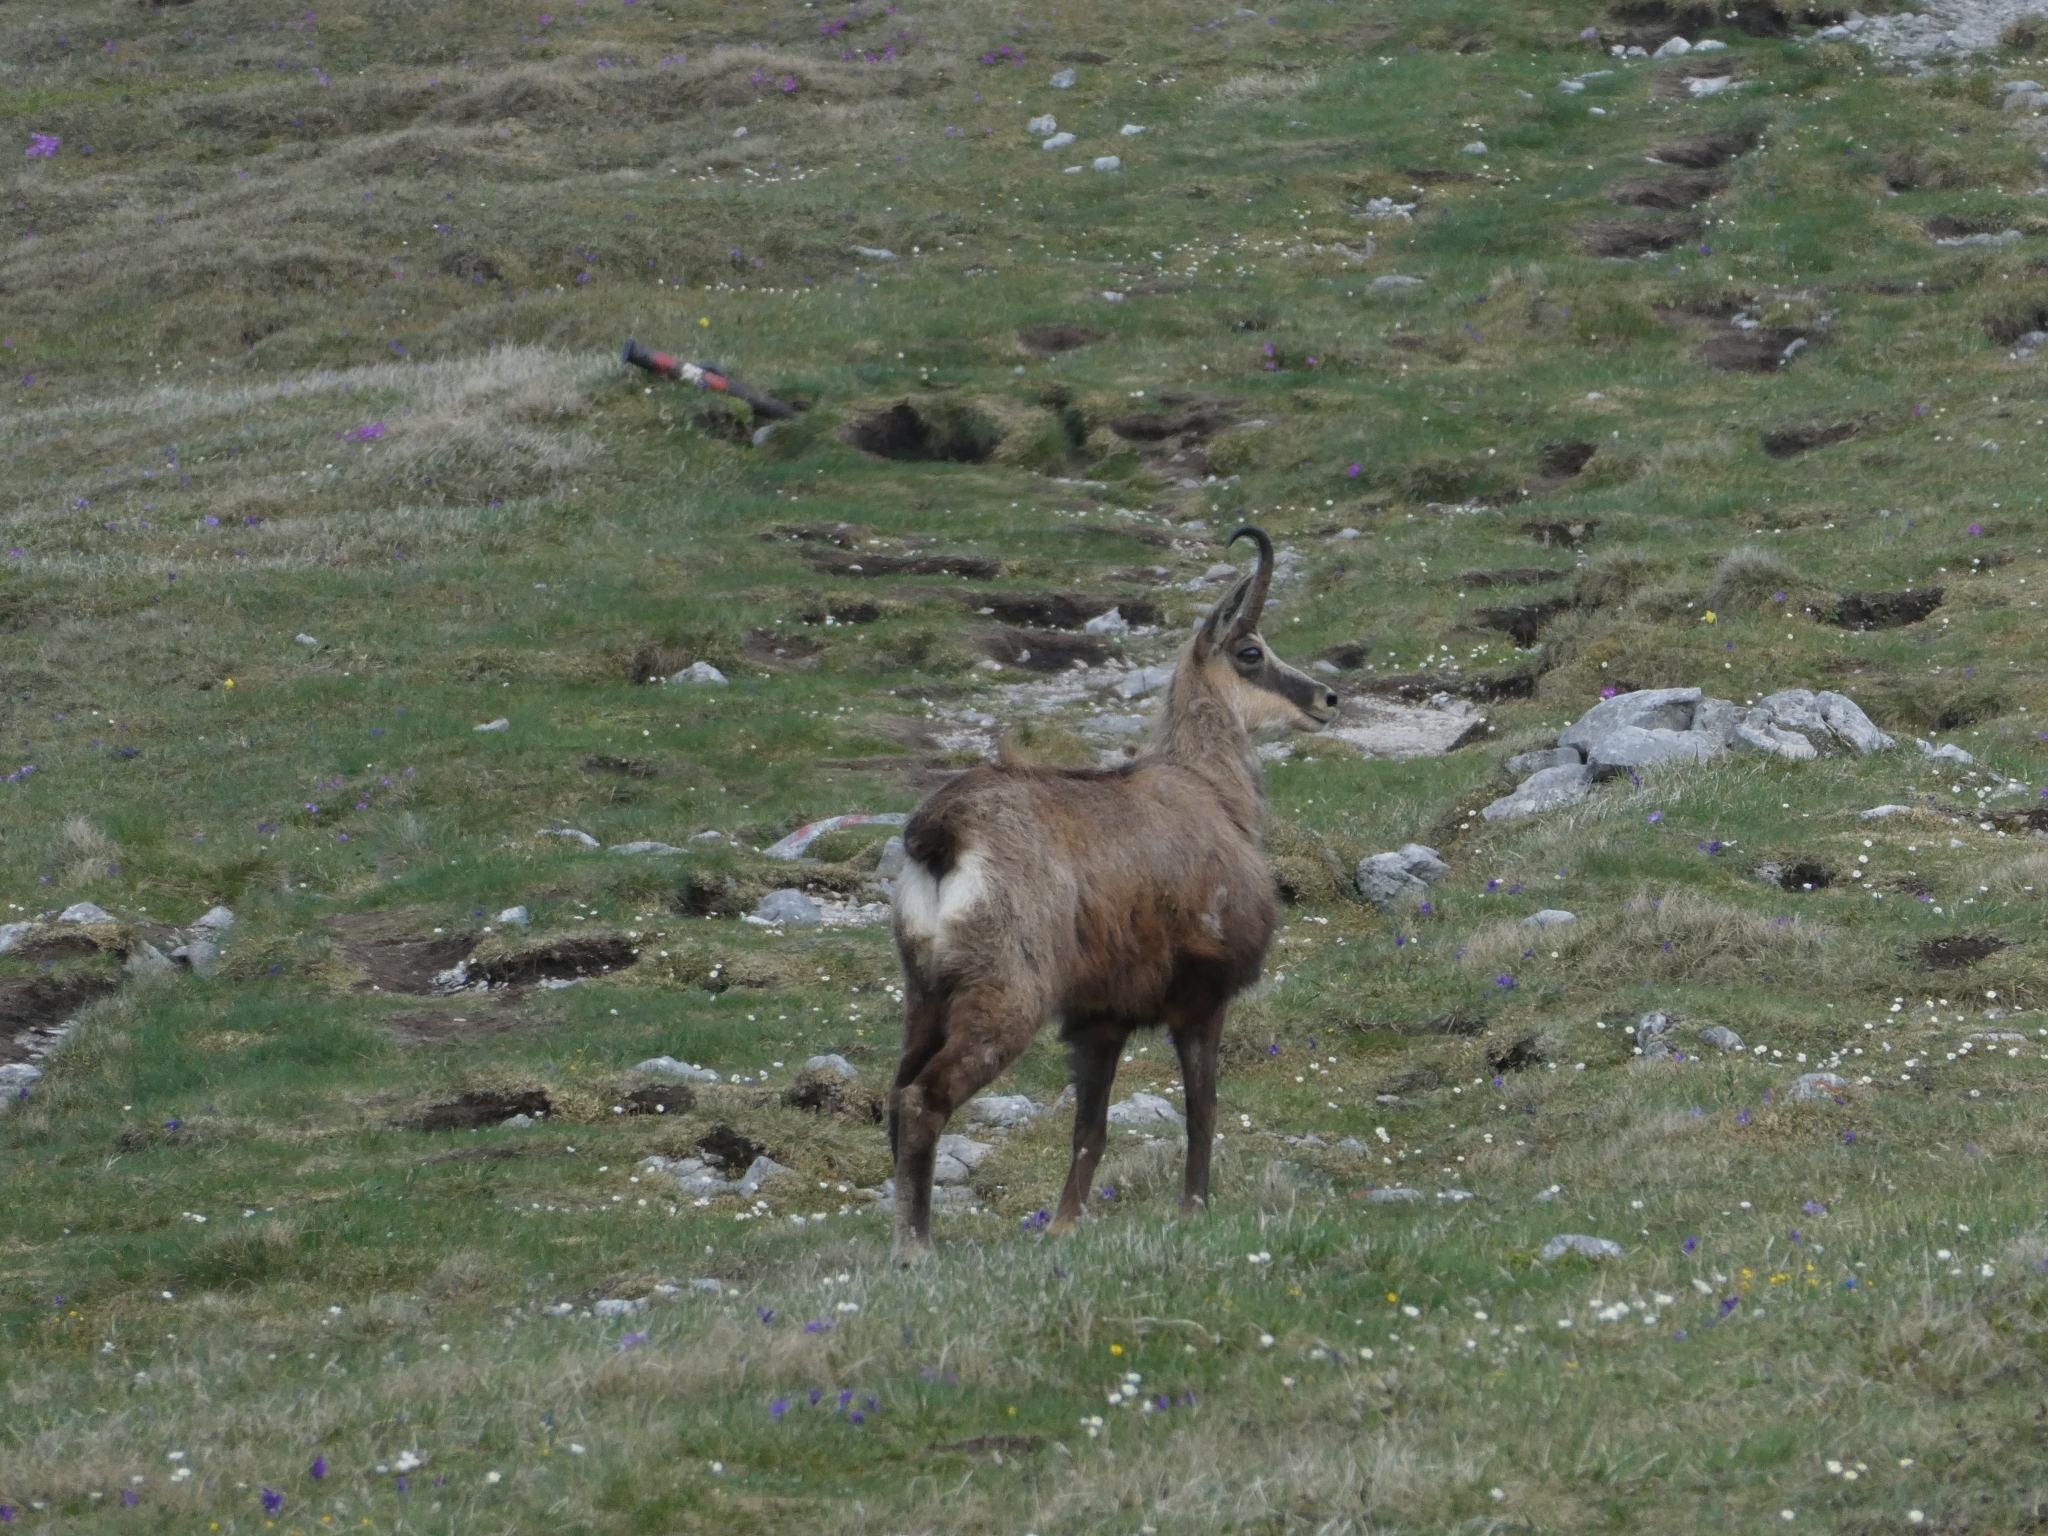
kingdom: Animalia
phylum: Chordata
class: Mammalia
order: Artiodactyla
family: Bovidae
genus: Rupicapra
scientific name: Rupicapra rupicapra
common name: Chamois
